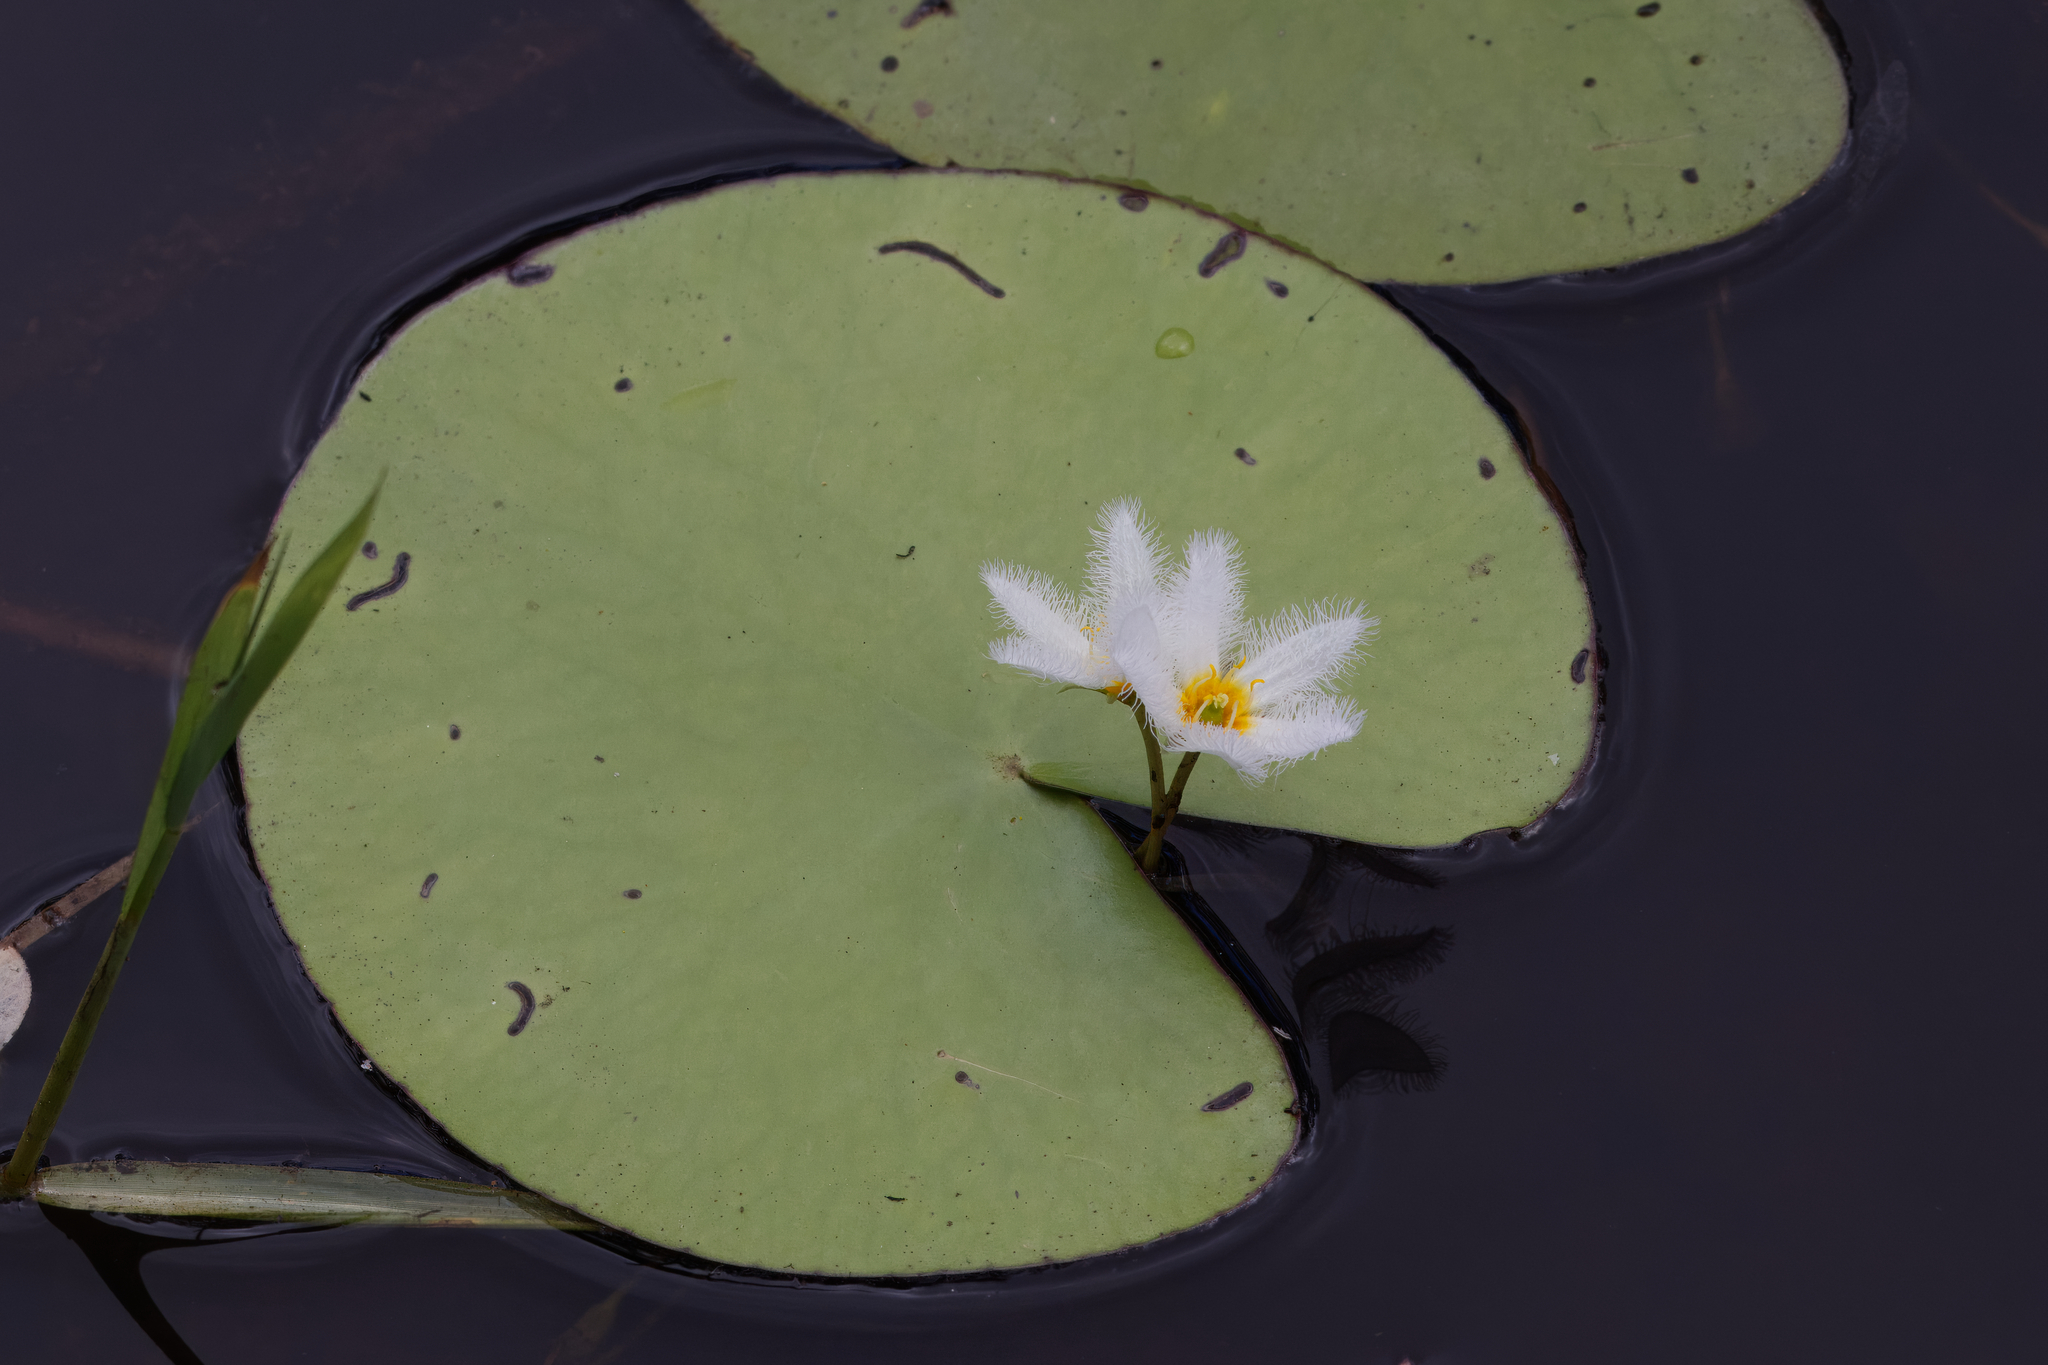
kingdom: Plantae
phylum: Tracheophyta
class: Magnoliopsida
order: Asterales
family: Menyanthaceae
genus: Nymphoides
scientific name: Nymphoides indica
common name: Water-snowflake
